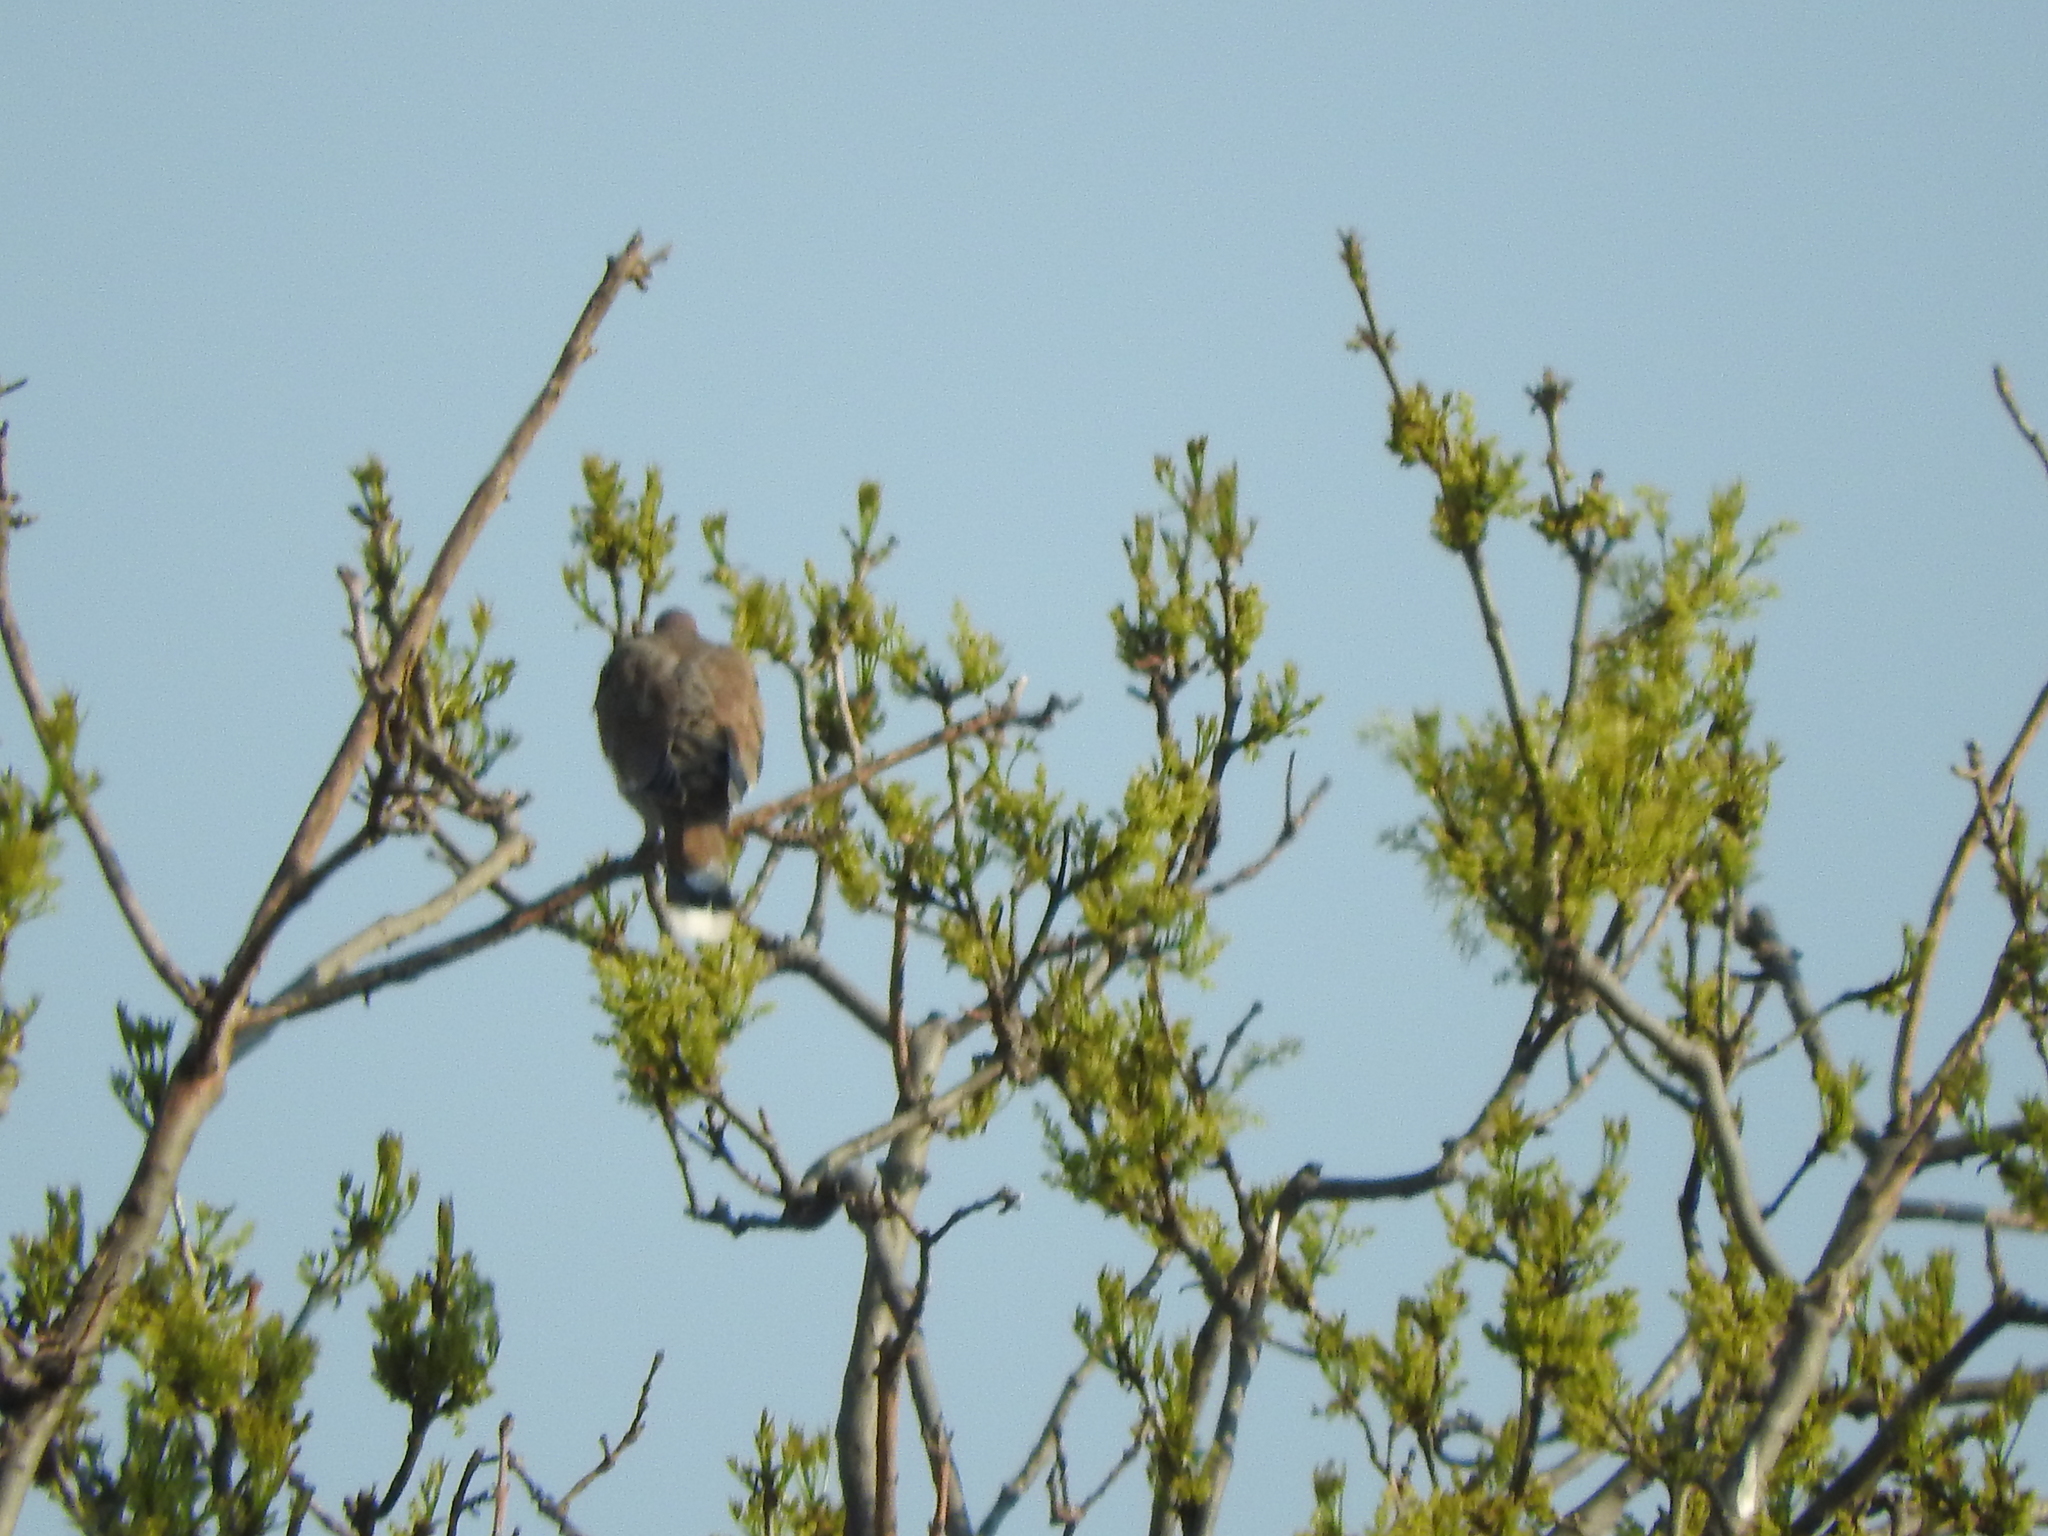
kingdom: Animalia
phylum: Chordata
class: Aves
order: Columbiformes
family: Columbidae
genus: Zenaida
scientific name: Zenaida asiatica
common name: White-winged dove
